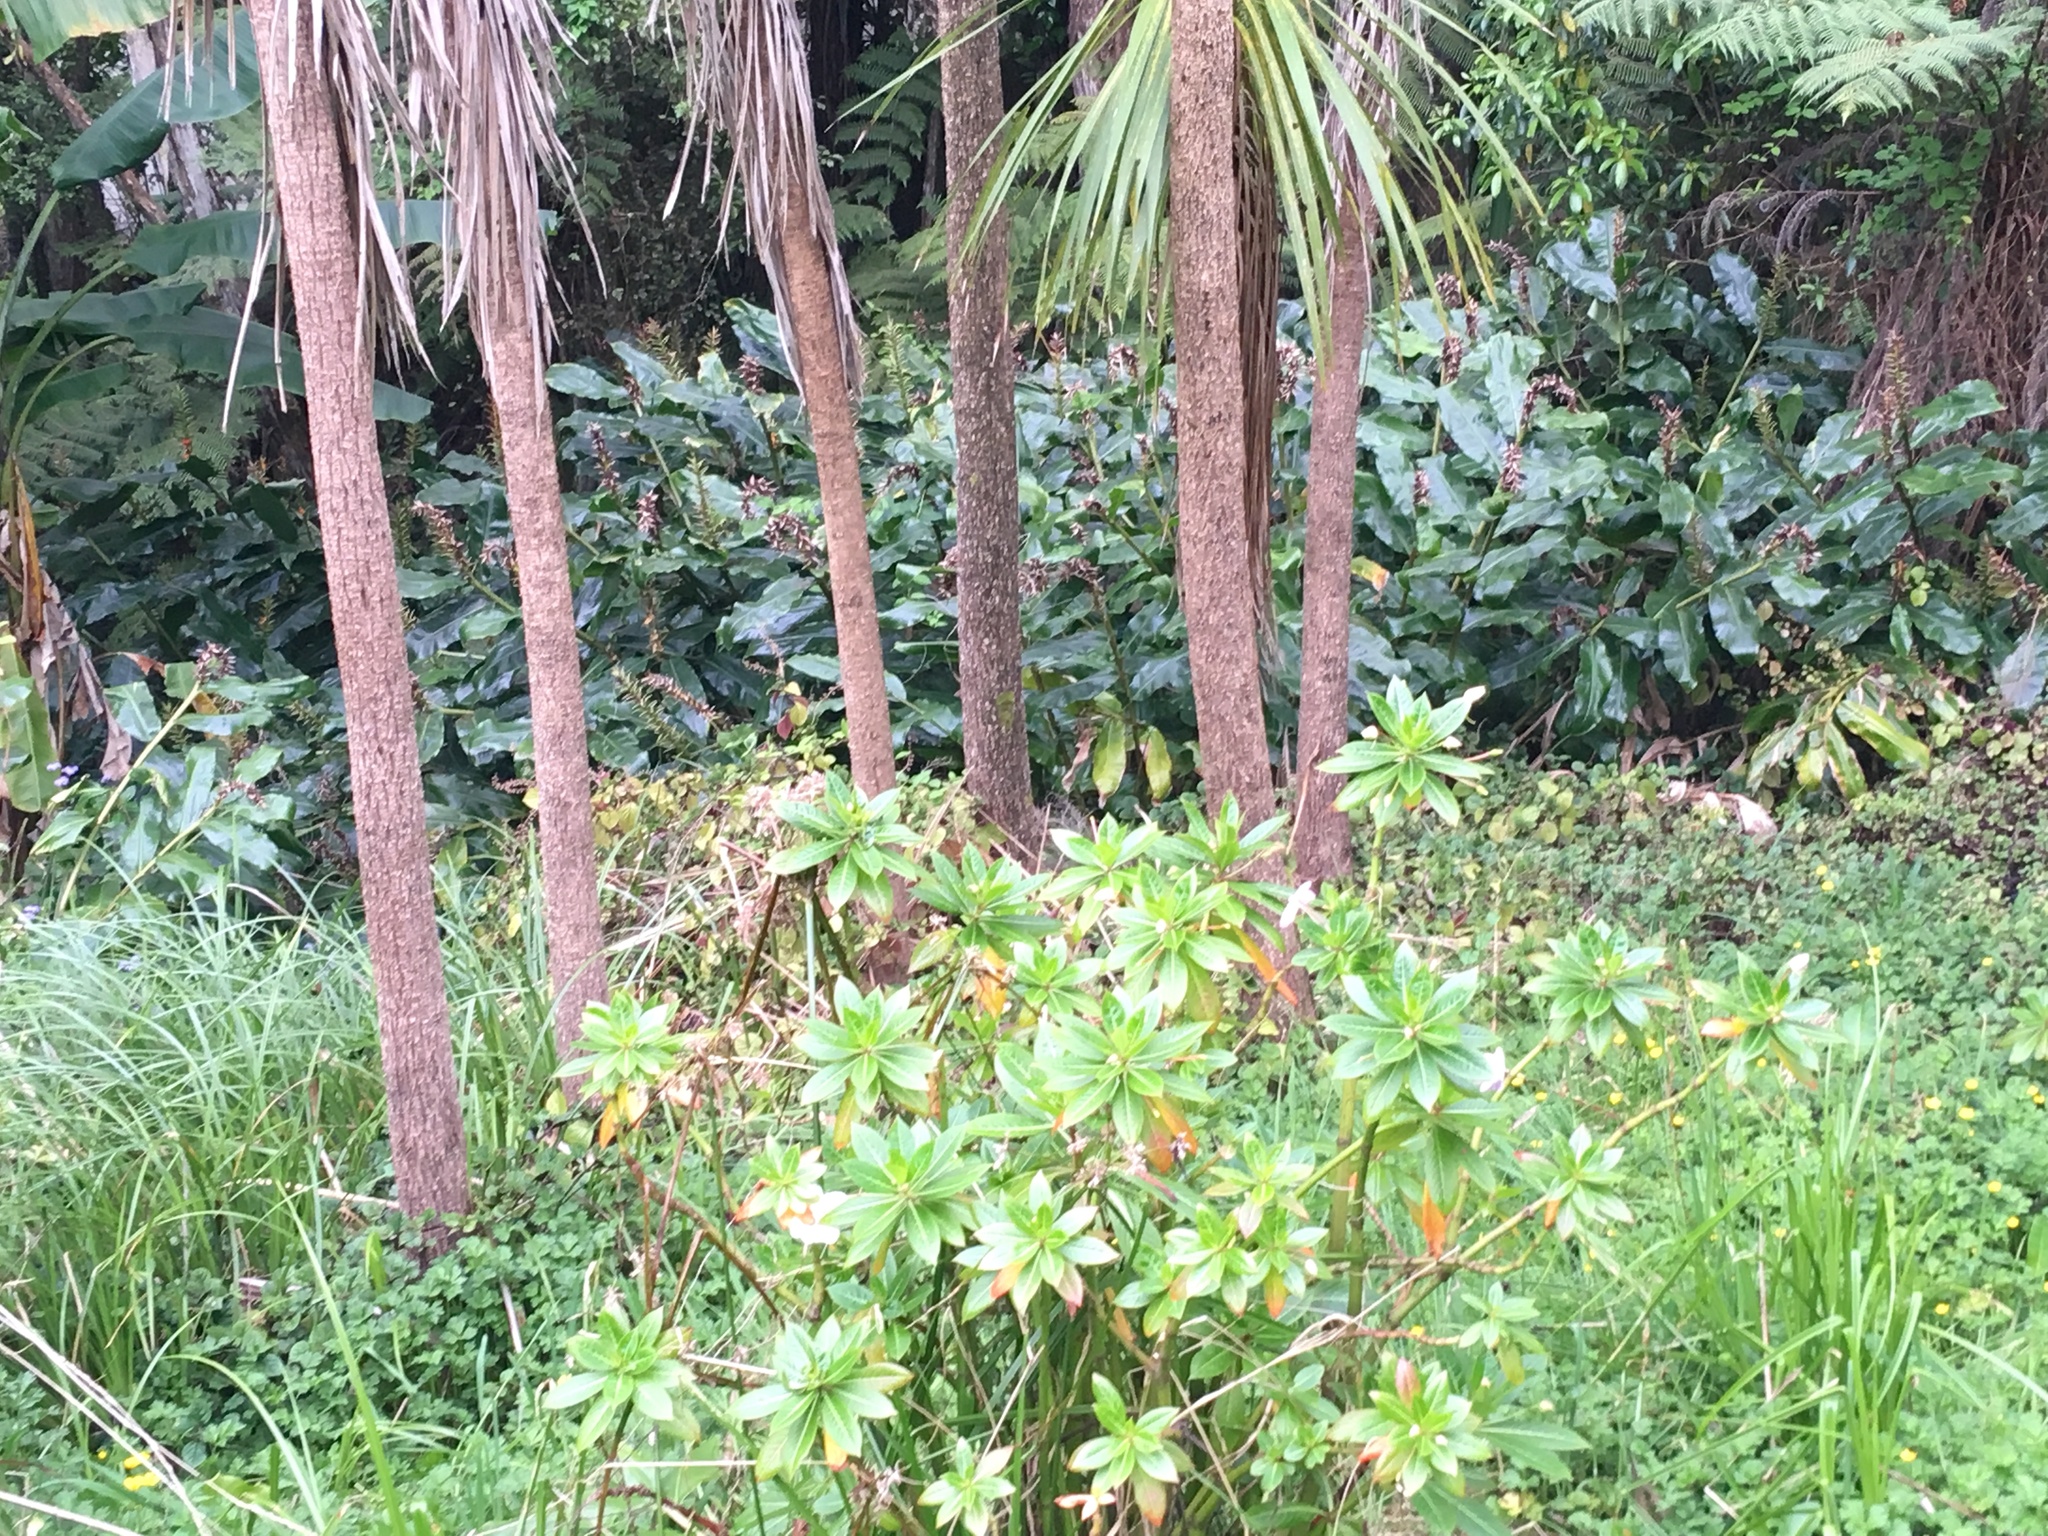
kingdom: Plantae
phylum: Tracheophyta
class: Liliopsida
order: Zingiberales
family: Zingiberaceae
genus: Hedychium
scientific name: Hedychium gardnerianum
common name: Himalayan ginger
